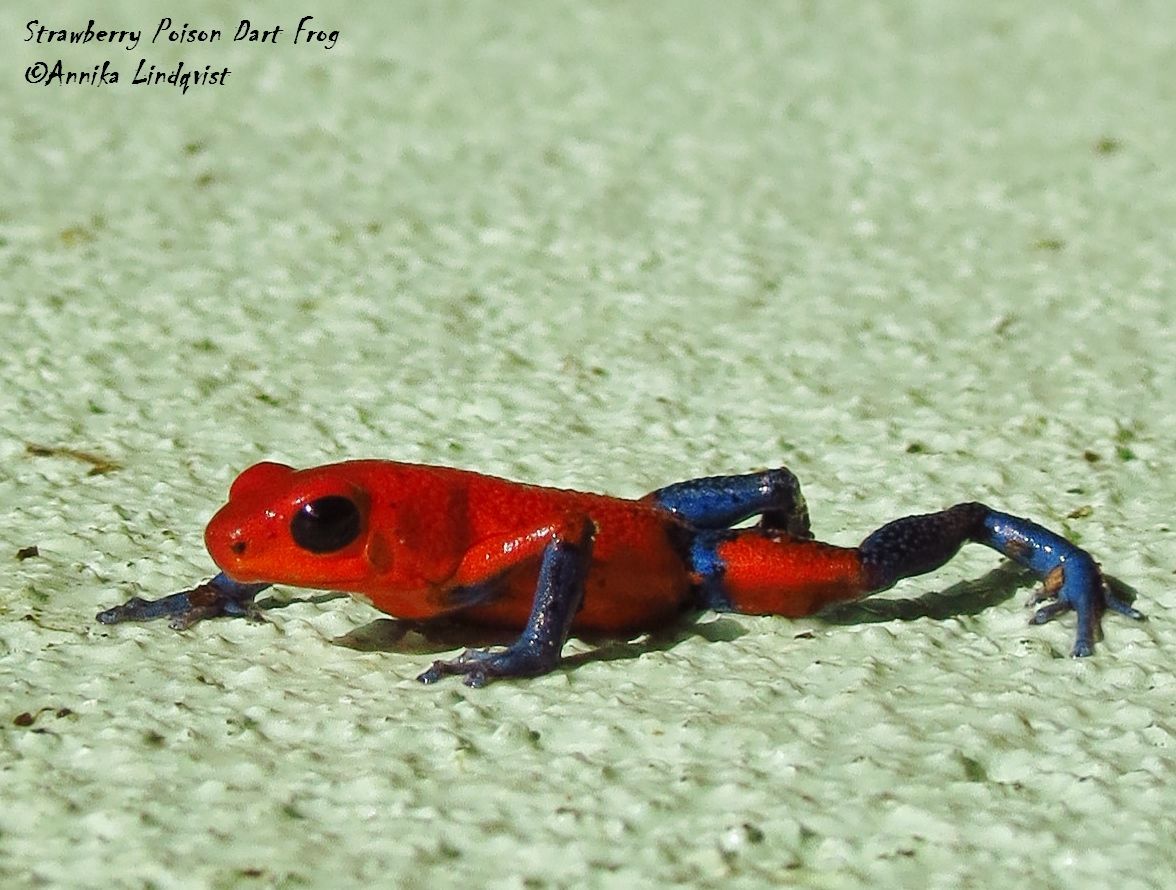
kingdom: Animalia
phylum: Chordata
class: Amphibia
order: Anura
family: Dendrobatidae
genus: Oophaga
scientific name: Oophaga pumilio
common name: Flaming poison frog
